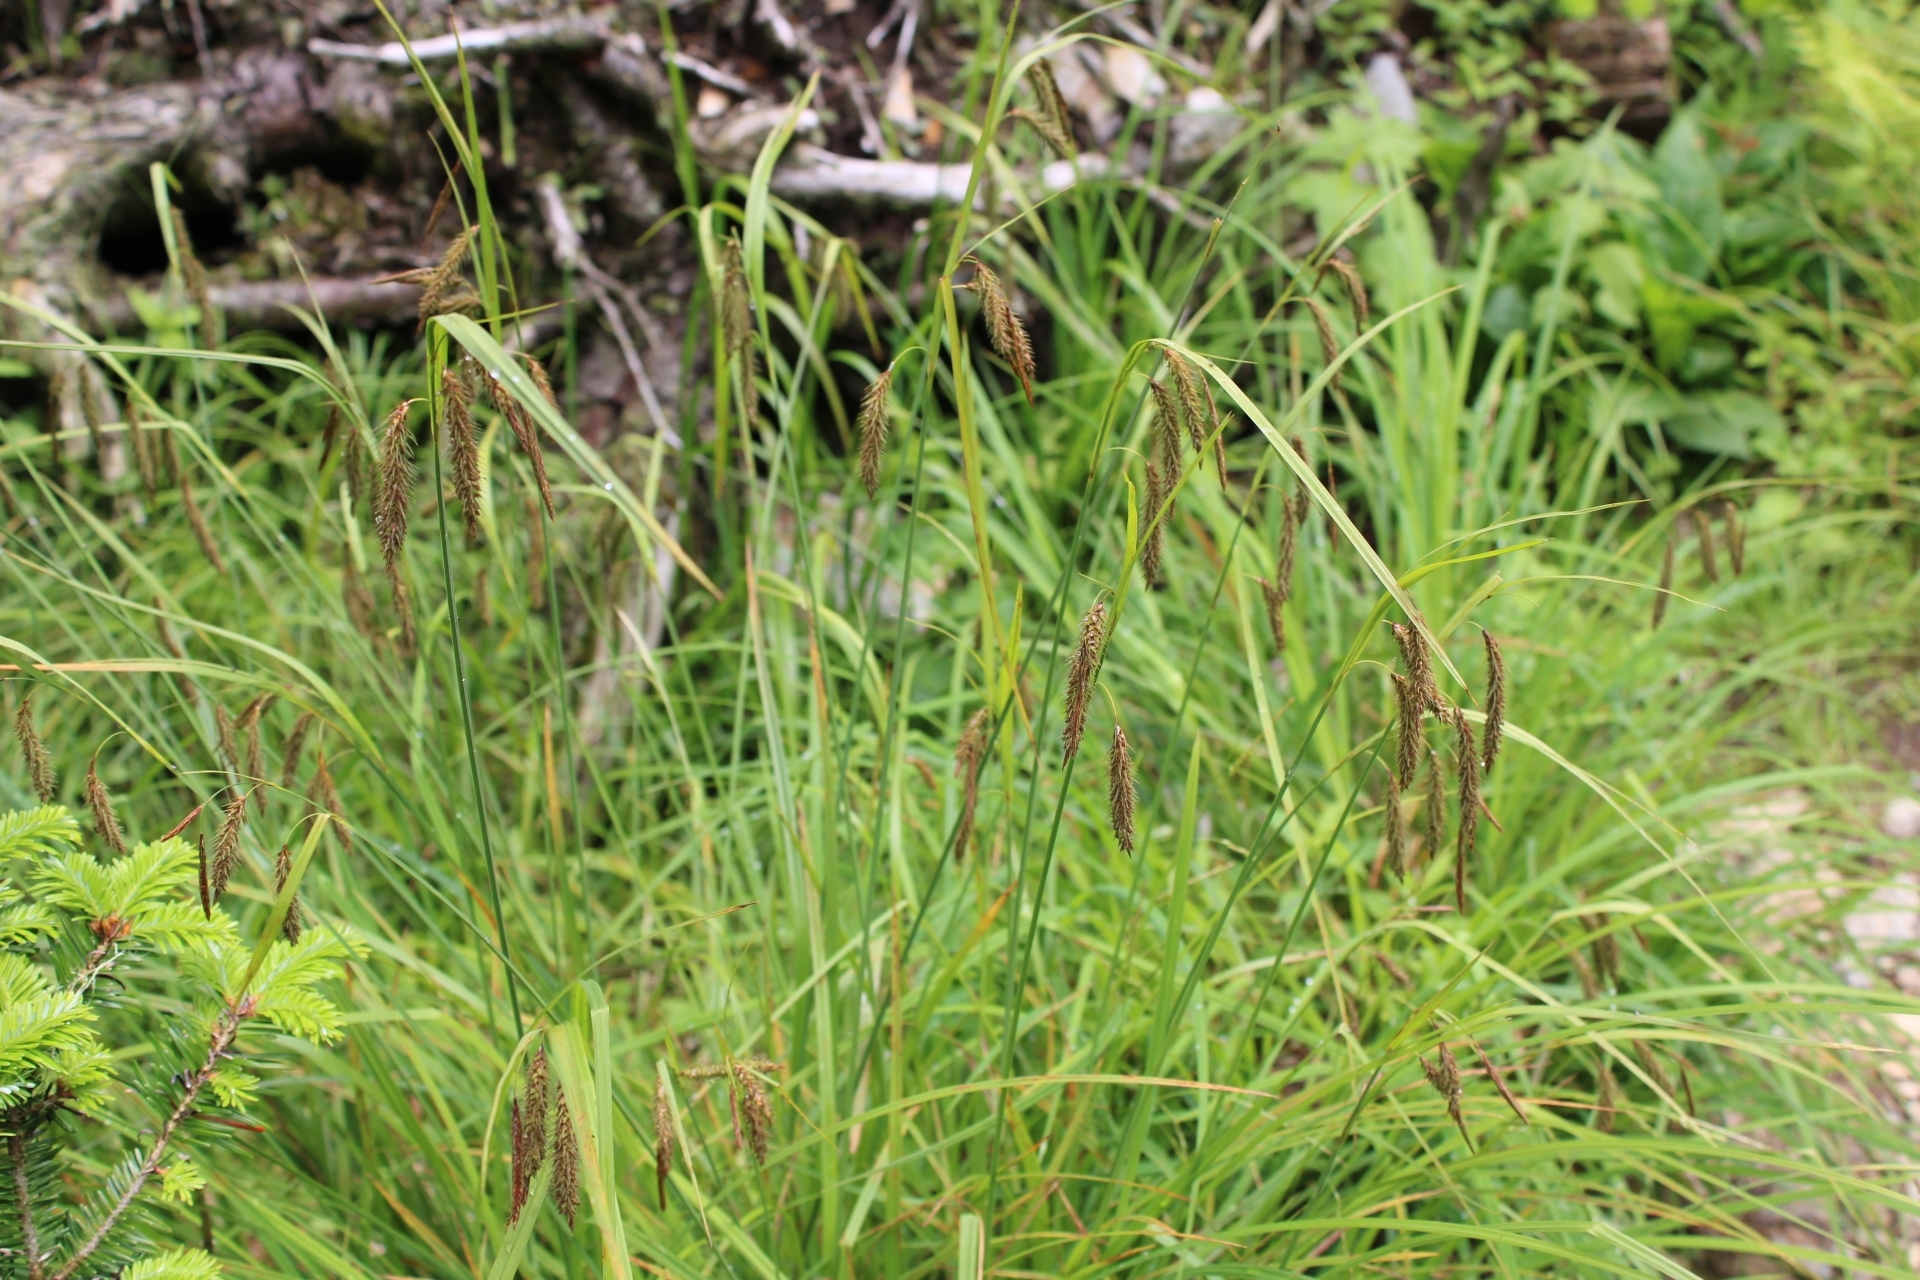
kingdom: Plantae
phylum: Tracheophyta
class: Liliopsida
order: Poales
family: Cyperaceae
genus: Carex
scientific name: Carex fumosimontana
